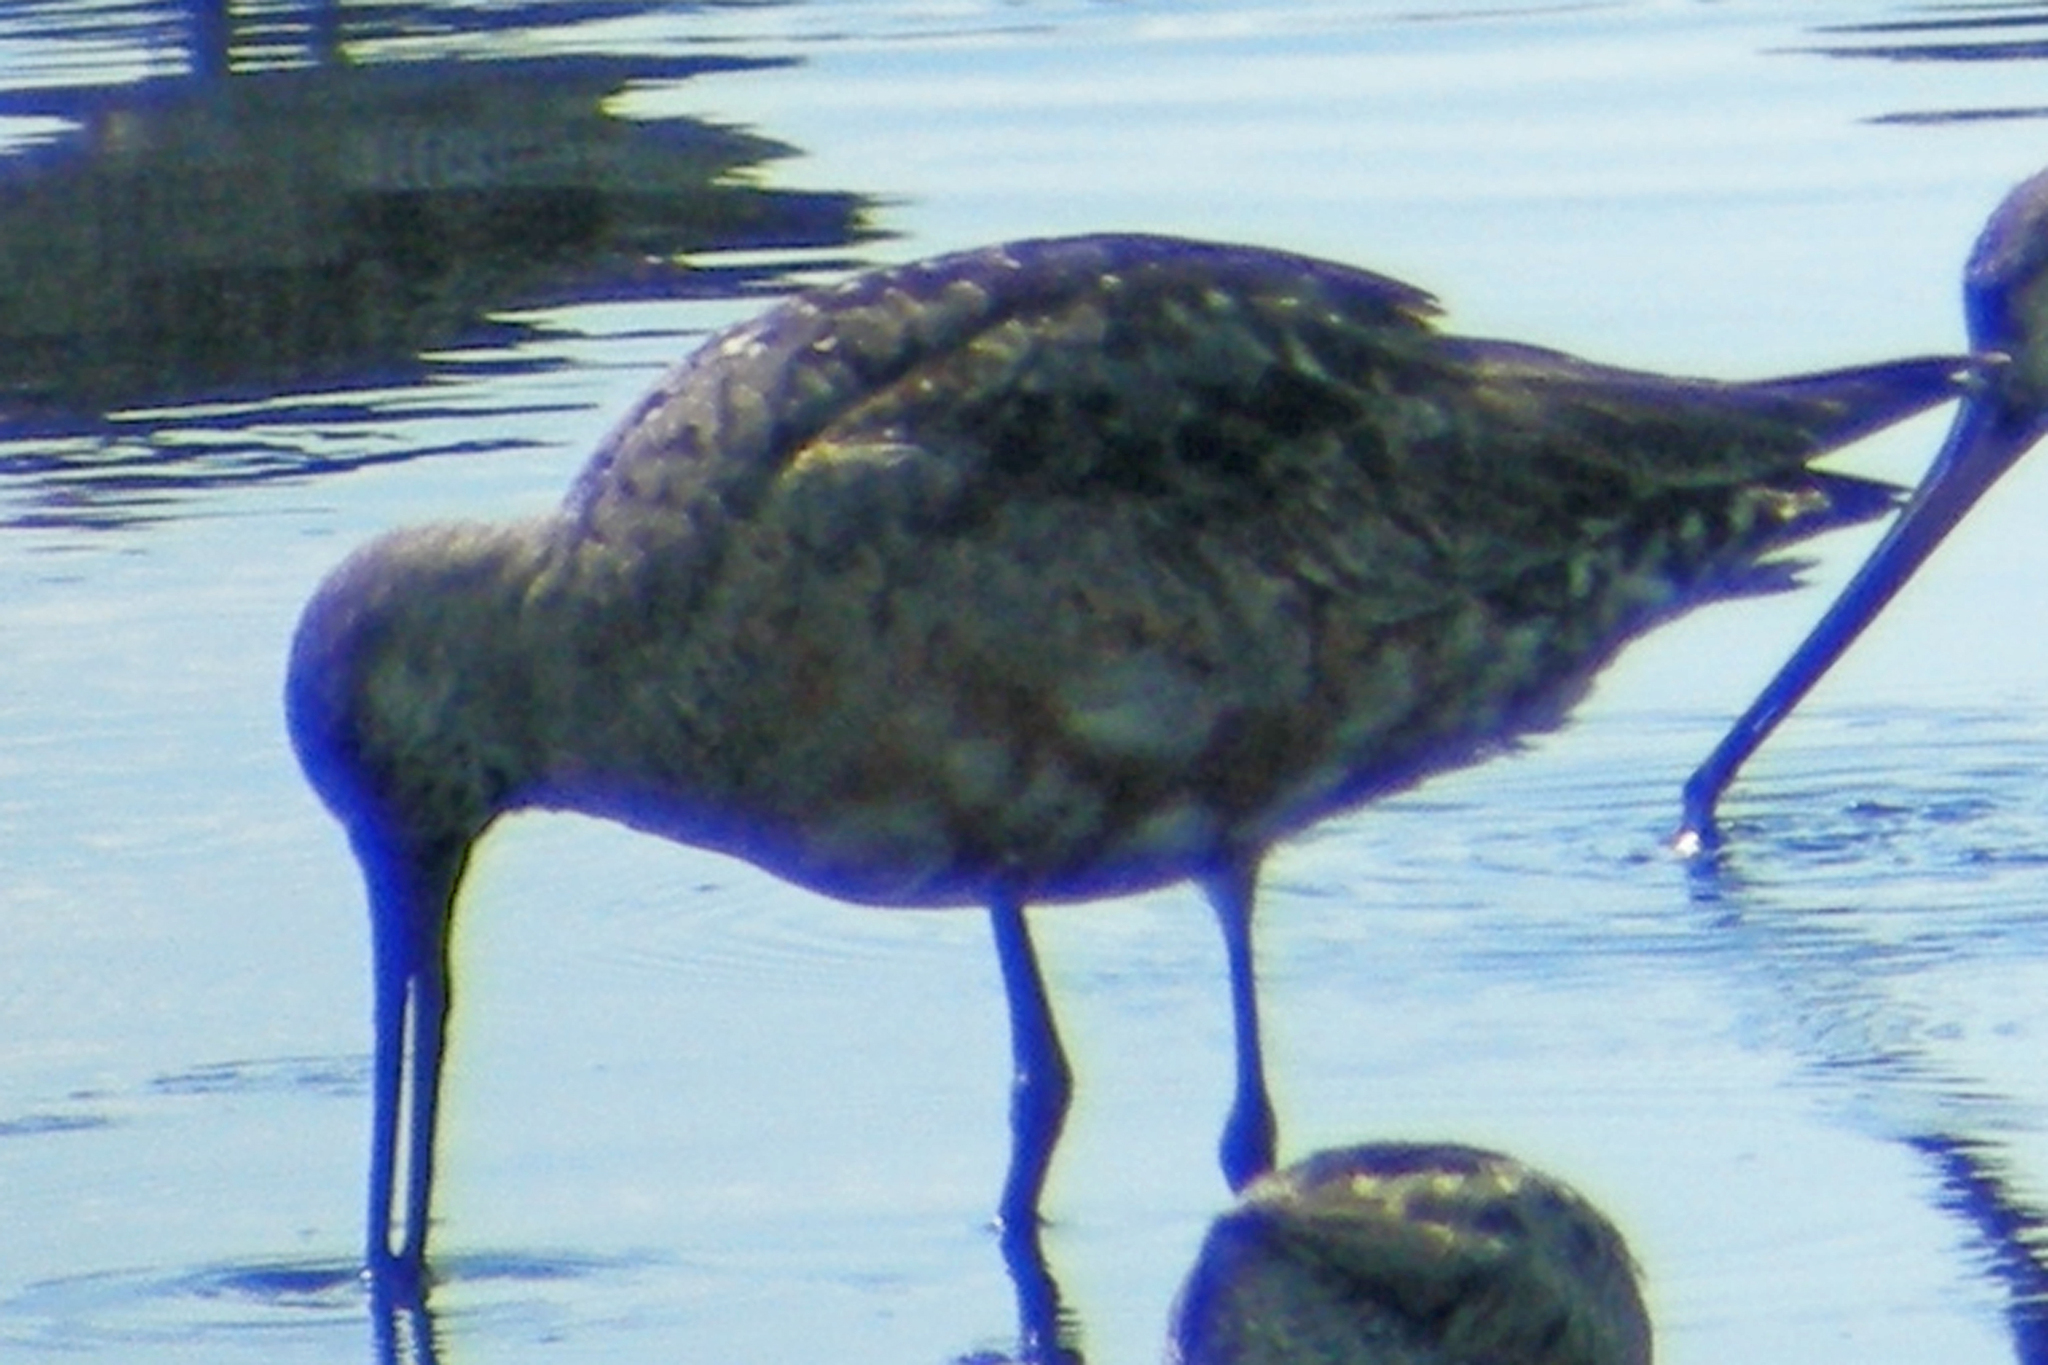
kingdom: Animalia
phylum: Chordata
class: Aves
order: Charadriiformes
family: Scolopacidae
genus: Limosa
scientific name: Limosa haemastica
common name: Hudsonian godwit
